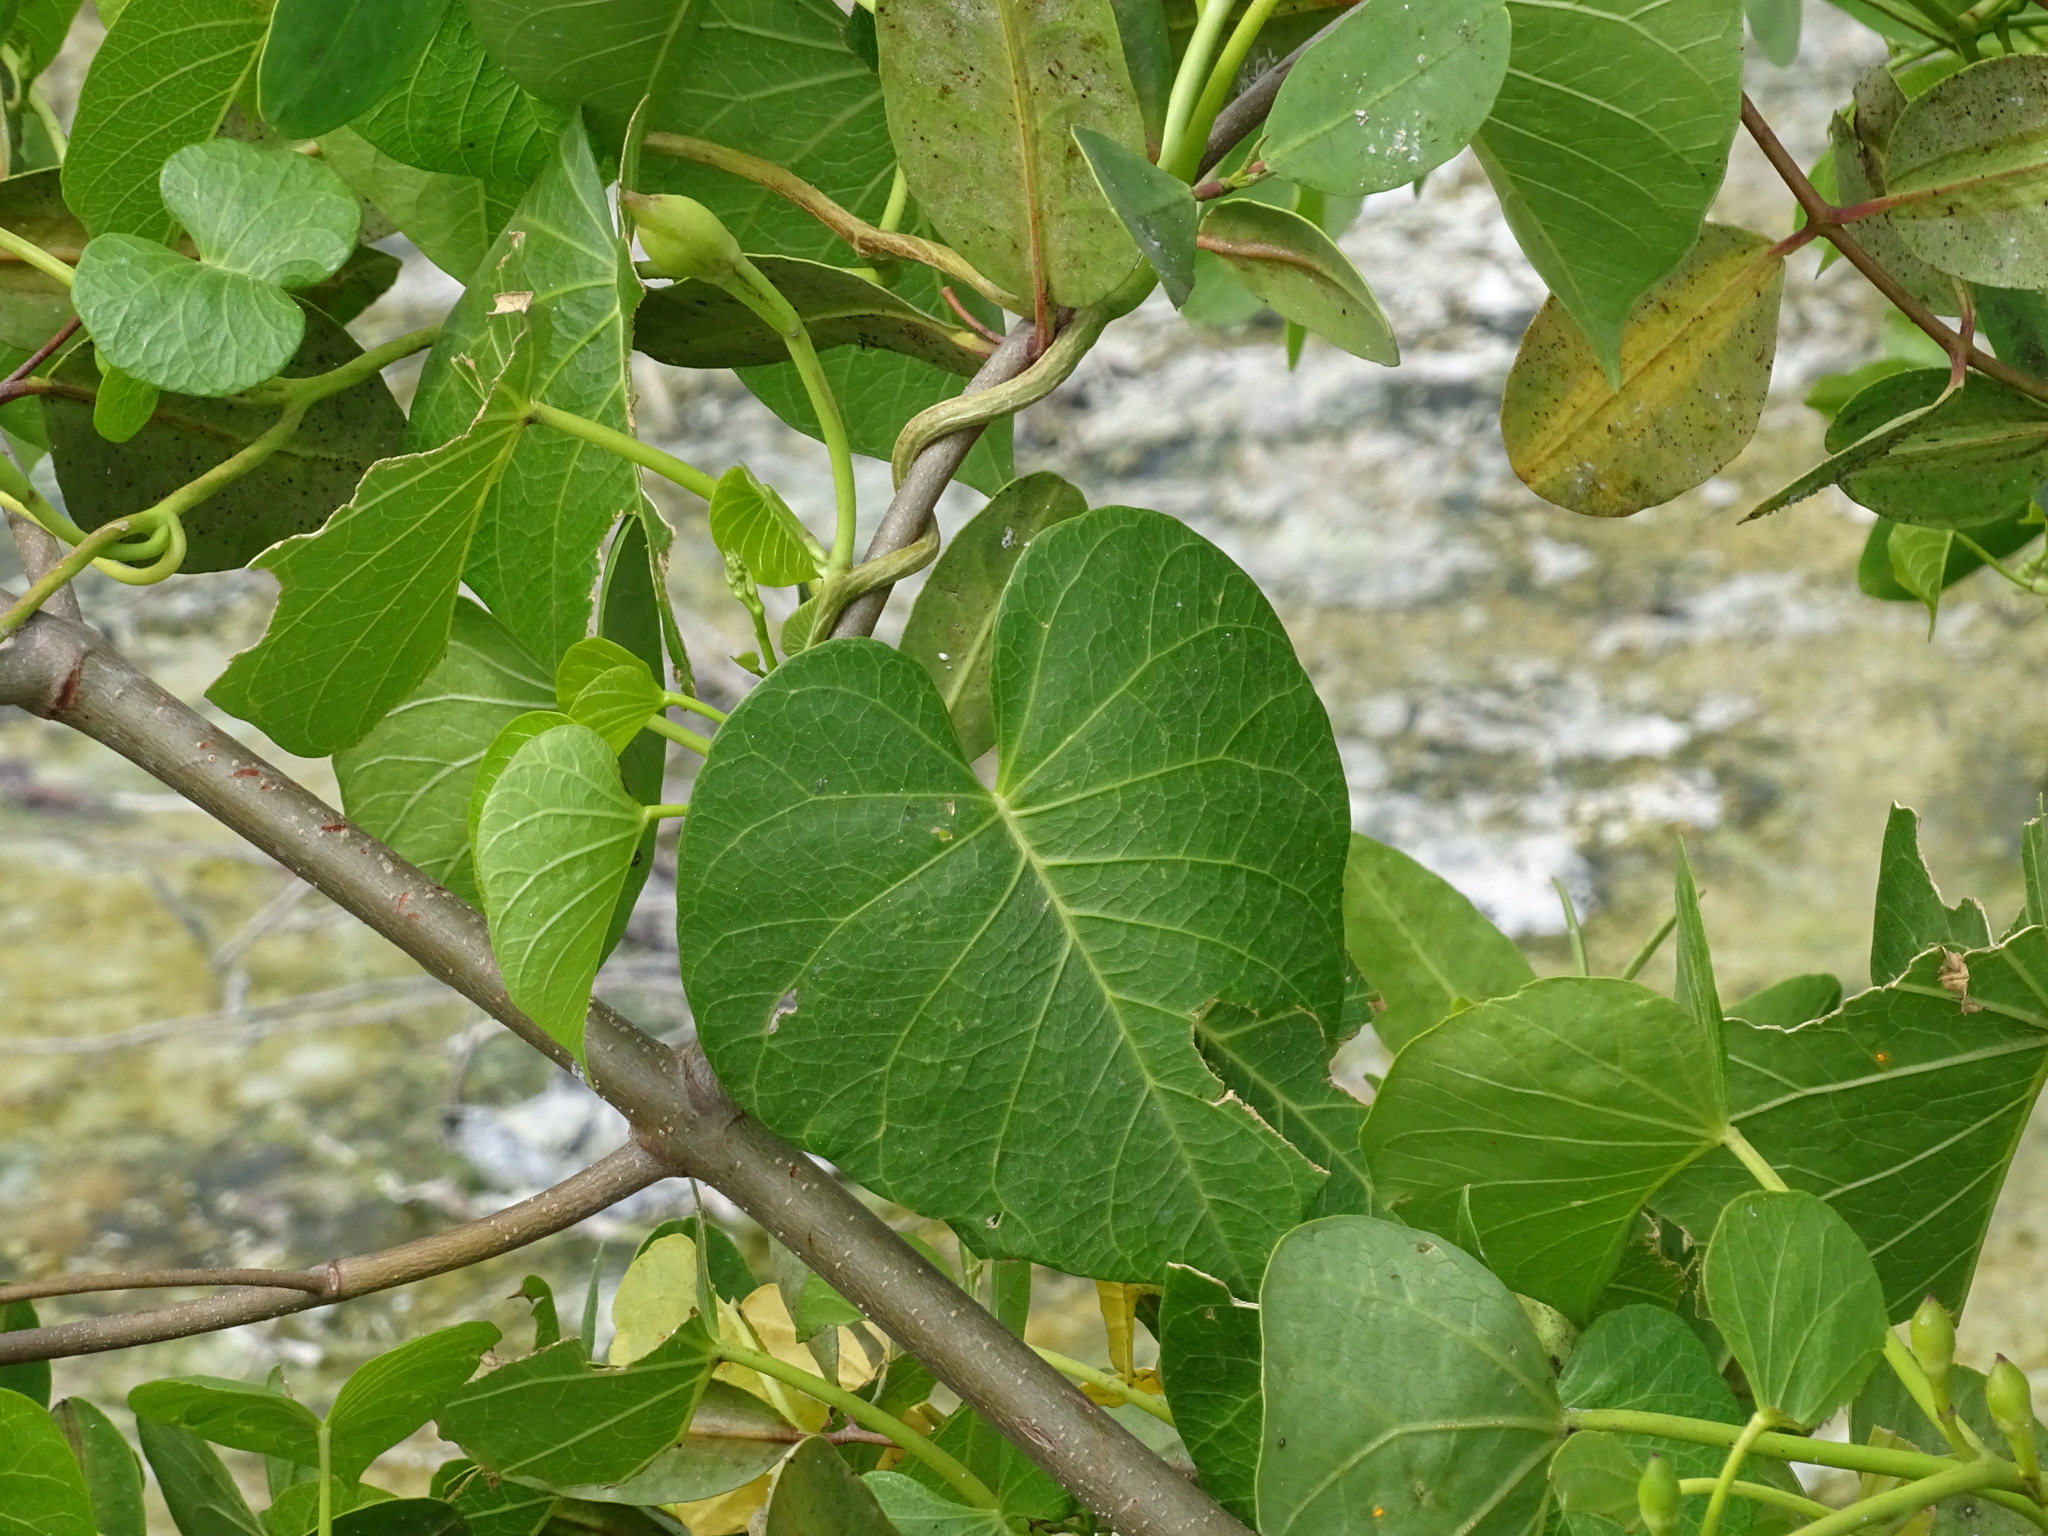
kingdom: Plantae
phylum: Tracheophyta
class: Magnoliopsida
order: Solanales
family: Convolvulaceae
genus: Ipomoea
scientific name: Ipomoea violacea
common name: Beach moonflower
